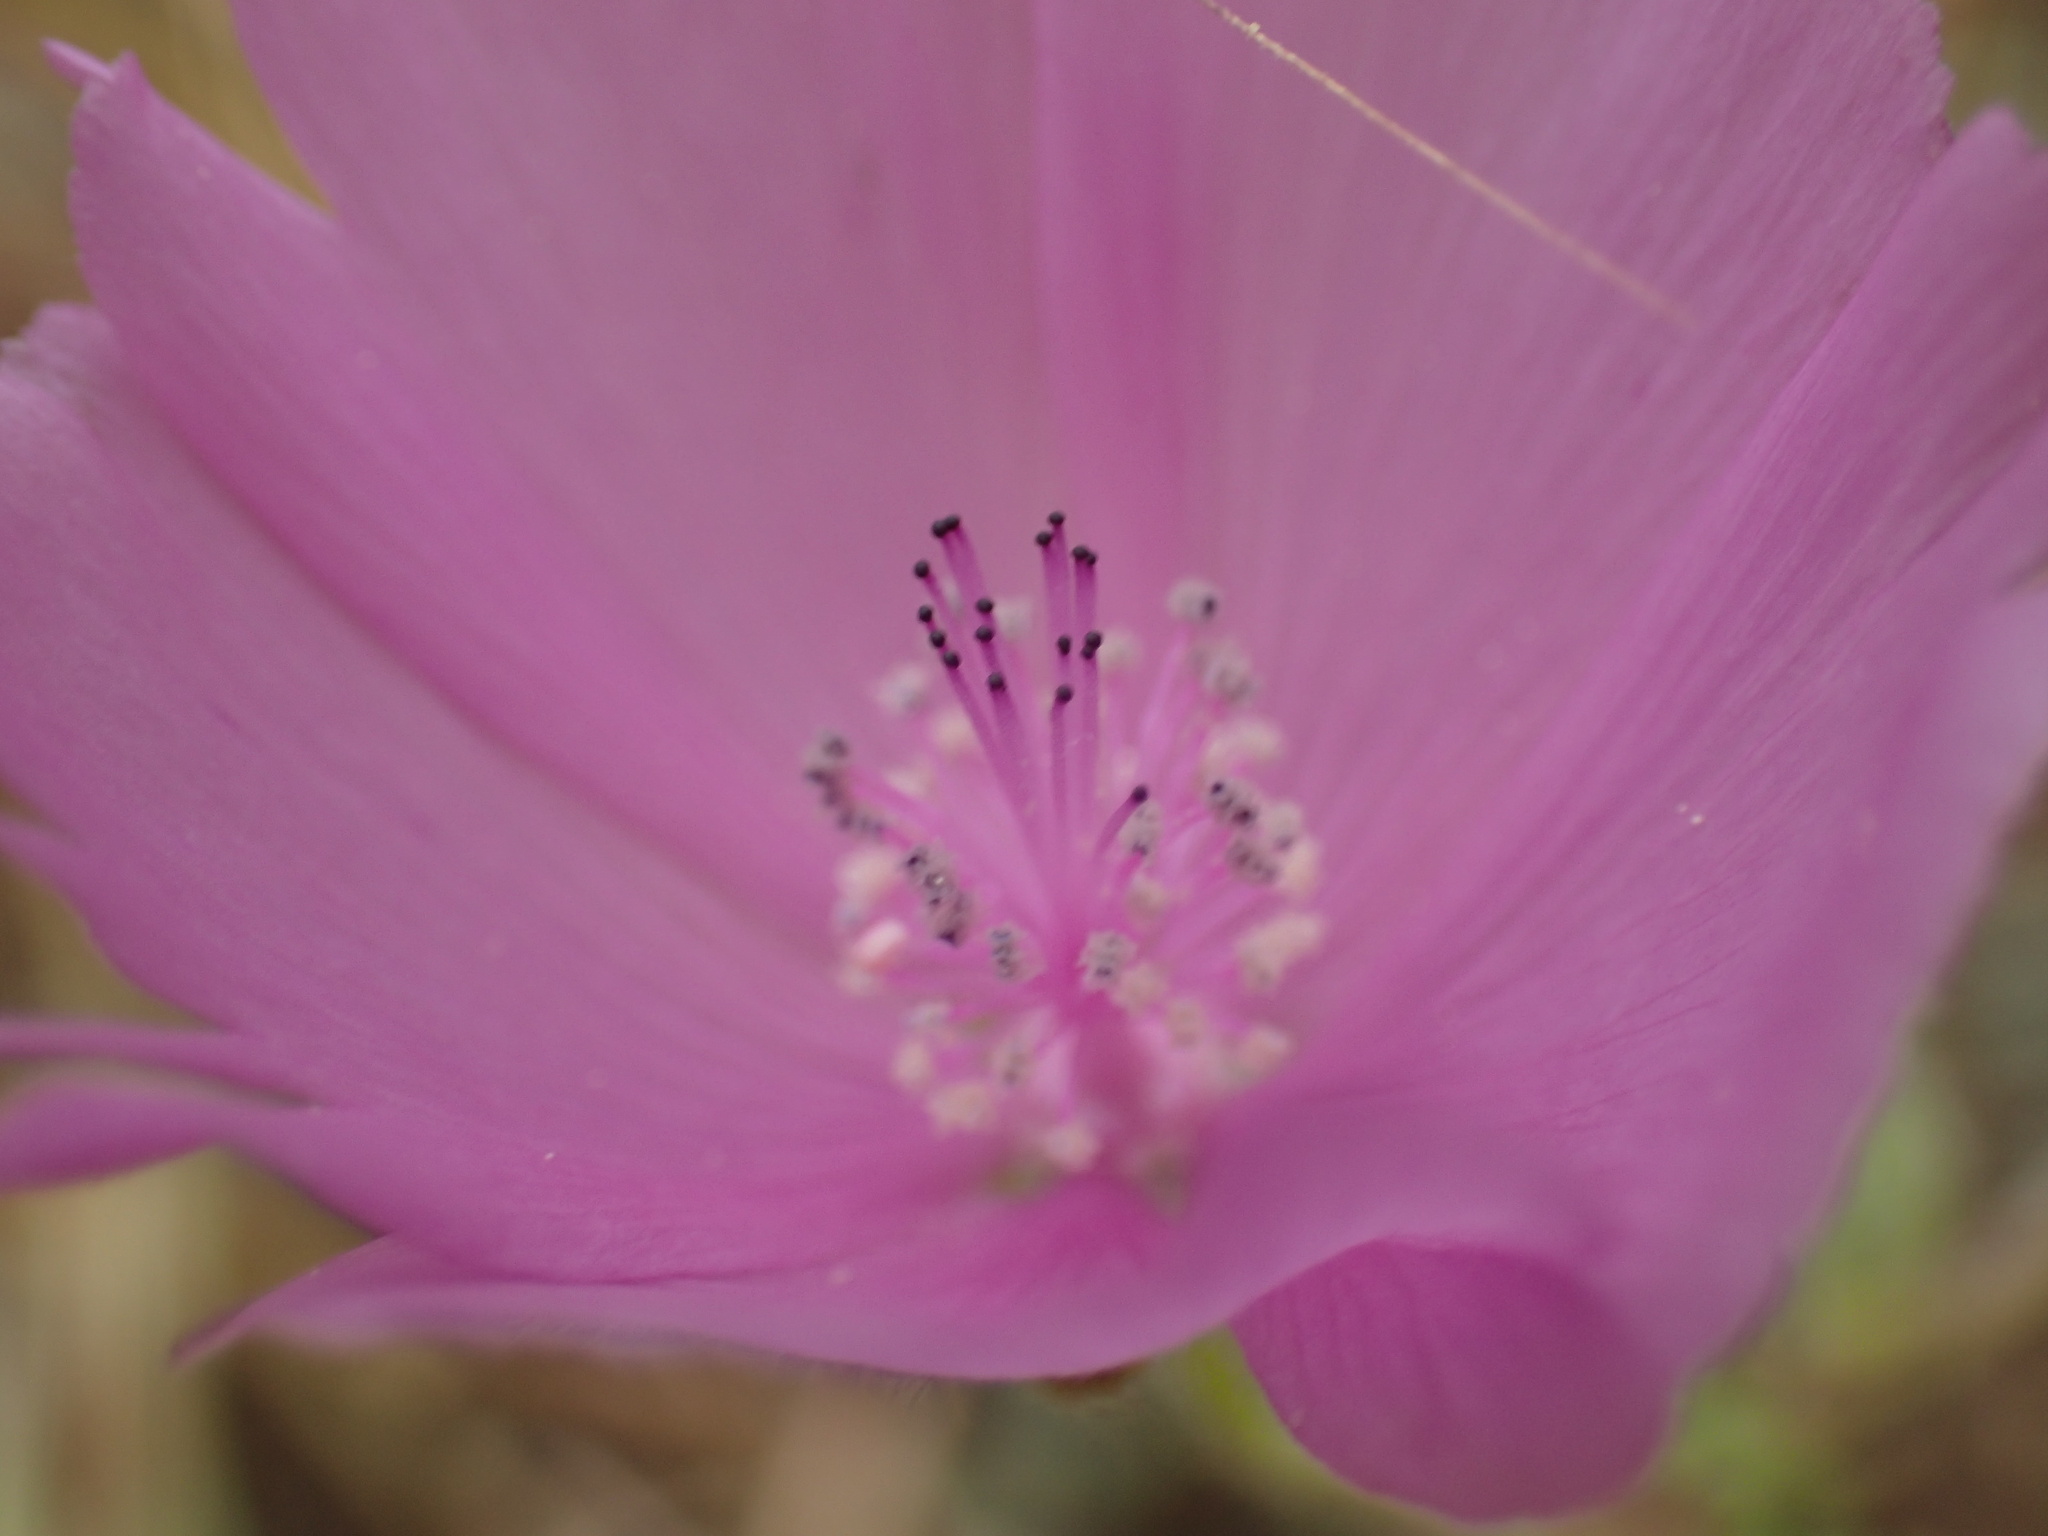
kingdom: Plantae
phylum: Tracheophyta
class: Magnoliopsida
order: Malvales
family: Malvaceae
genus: Eremalche
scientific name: Eremalche parryi
